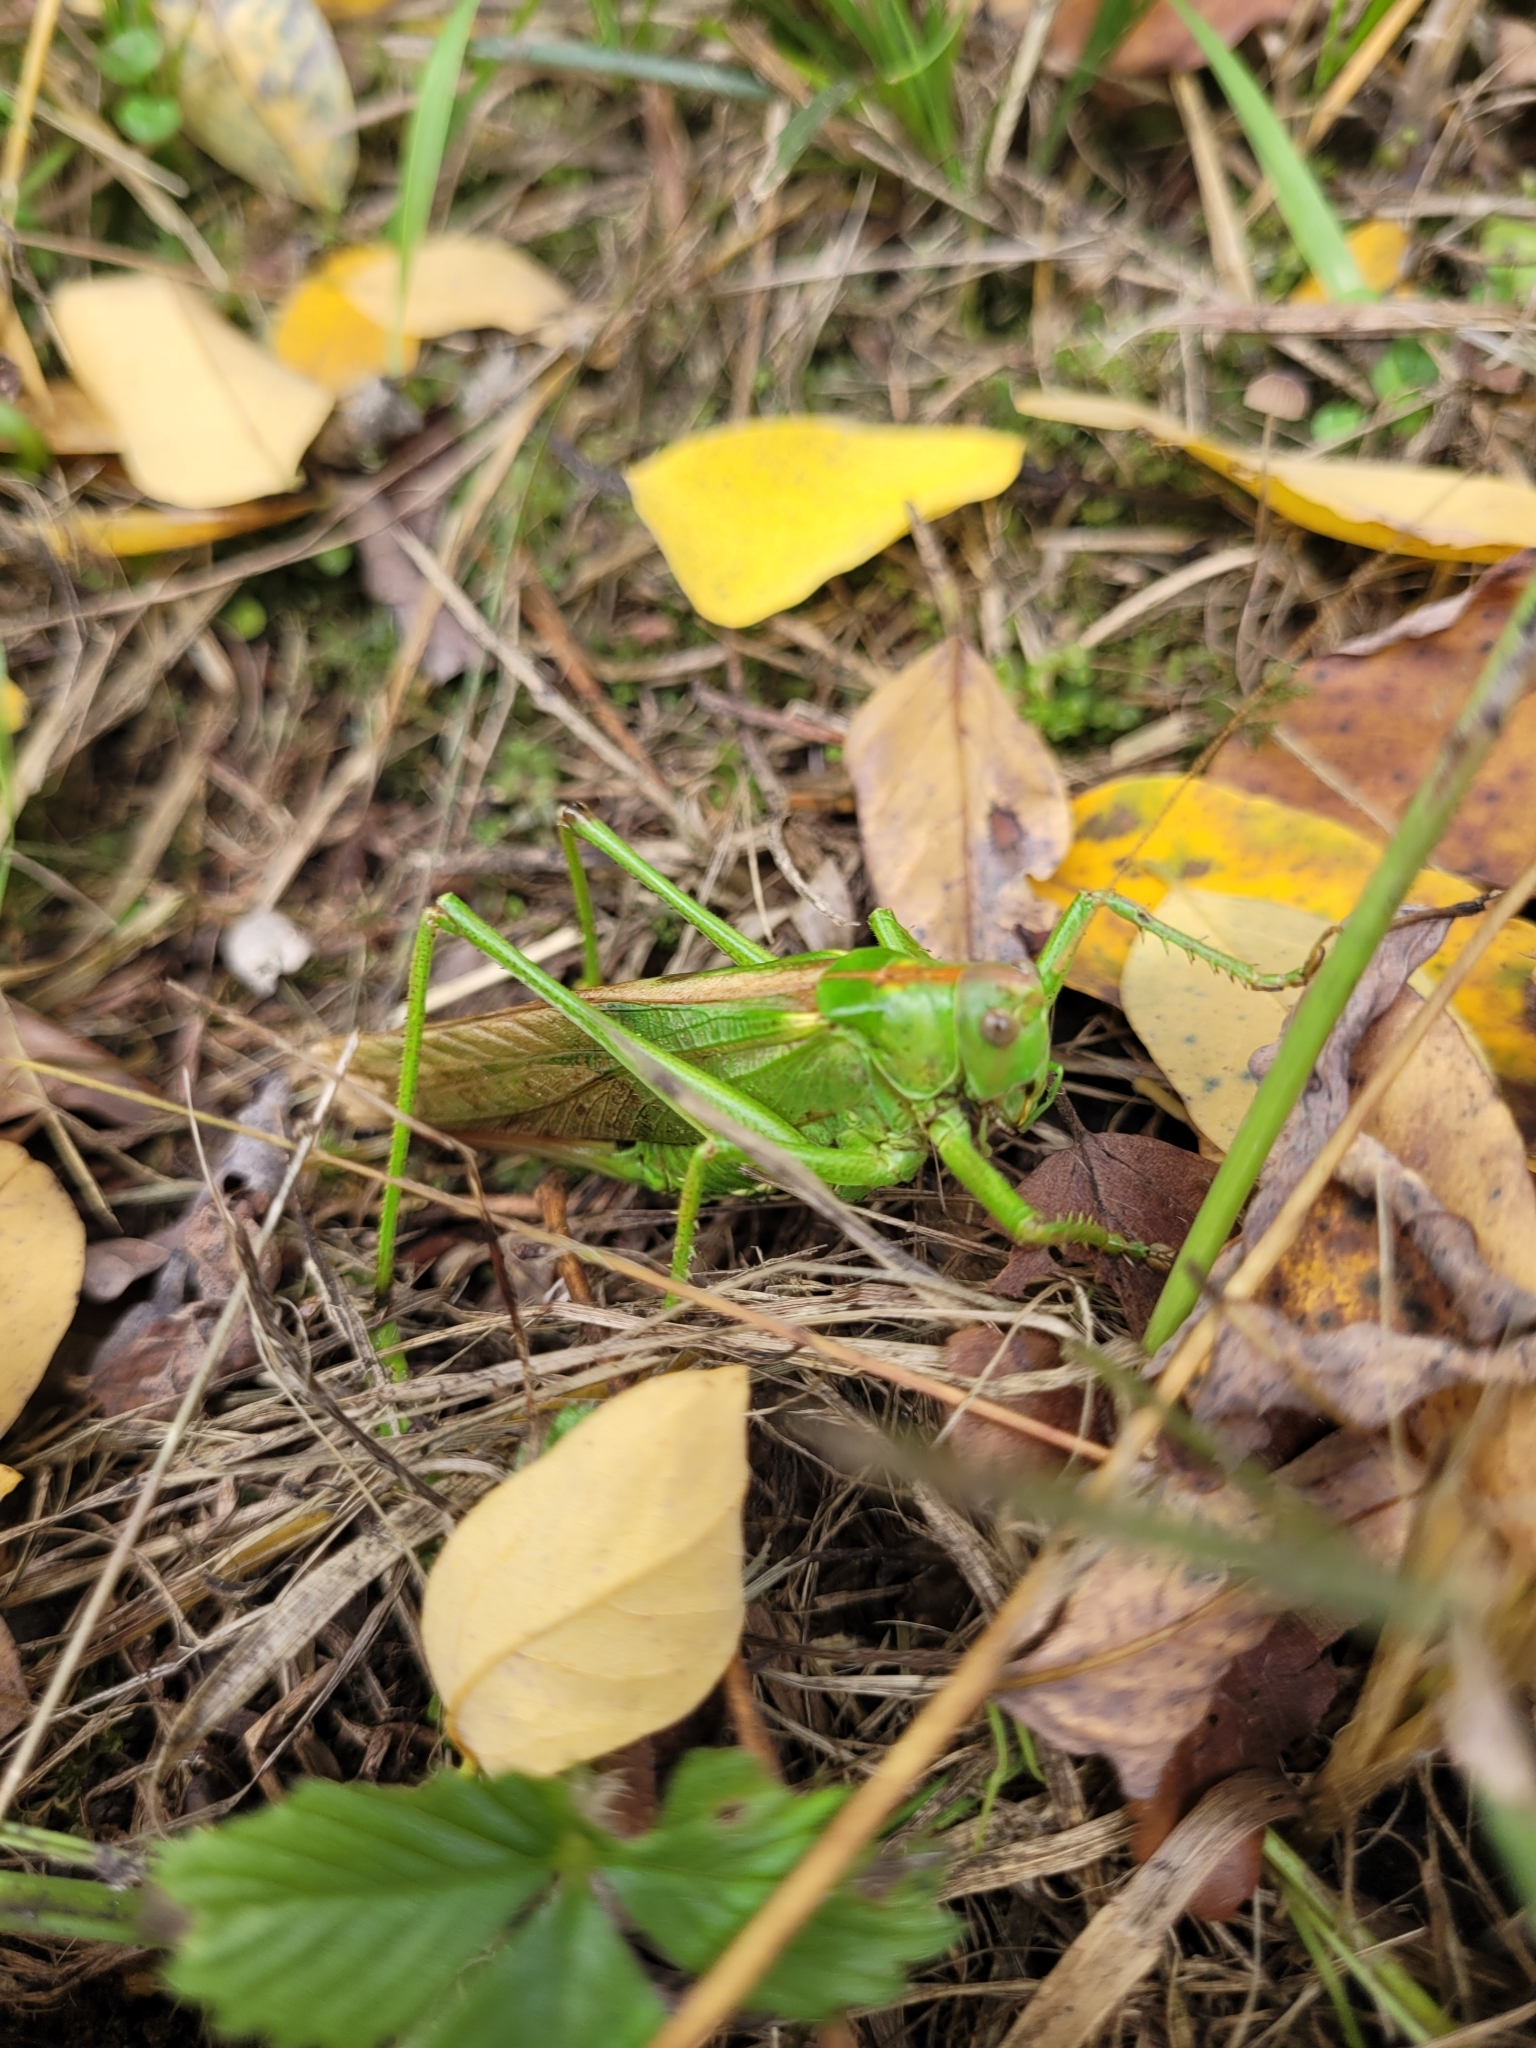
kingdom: Animalia
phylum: Arthropoda
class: Insecta
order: Orthoptera
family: Tettigoniidae
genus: Tettigonia
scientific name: Tettigonia viridissima
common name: Great green bush-cricket
